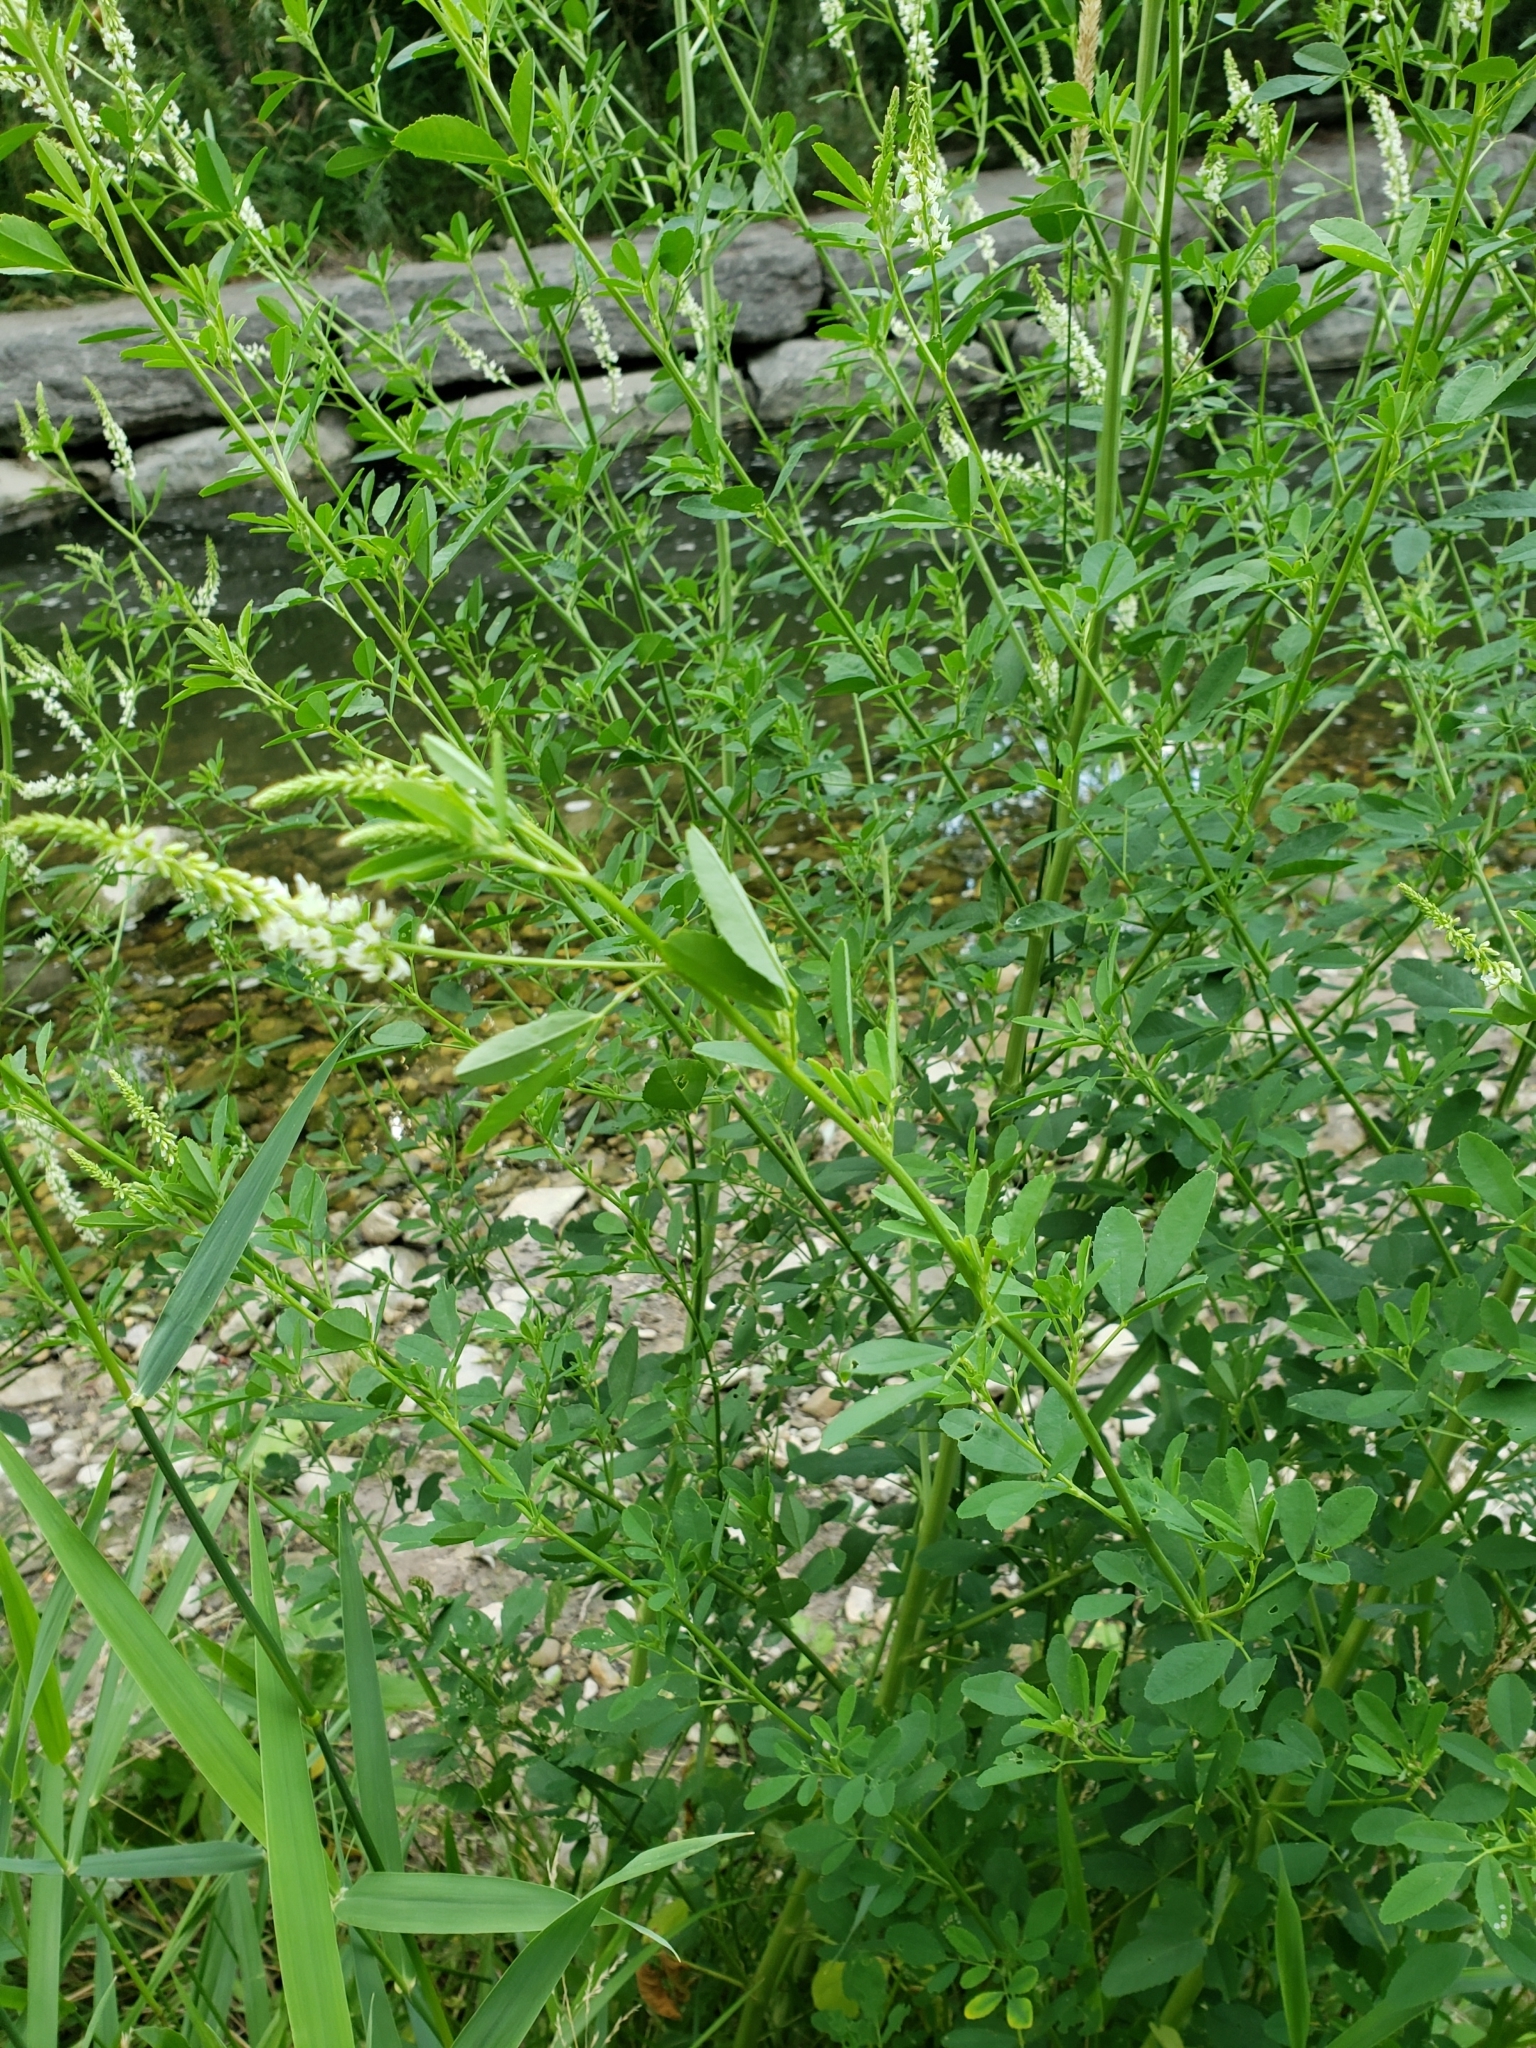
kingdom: Plantae
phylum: Tracheophyta
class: Magnoliopsida
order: Fabales
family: Fabaceae
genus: Melilotus
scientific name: Melilotus albus
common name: White melilot
